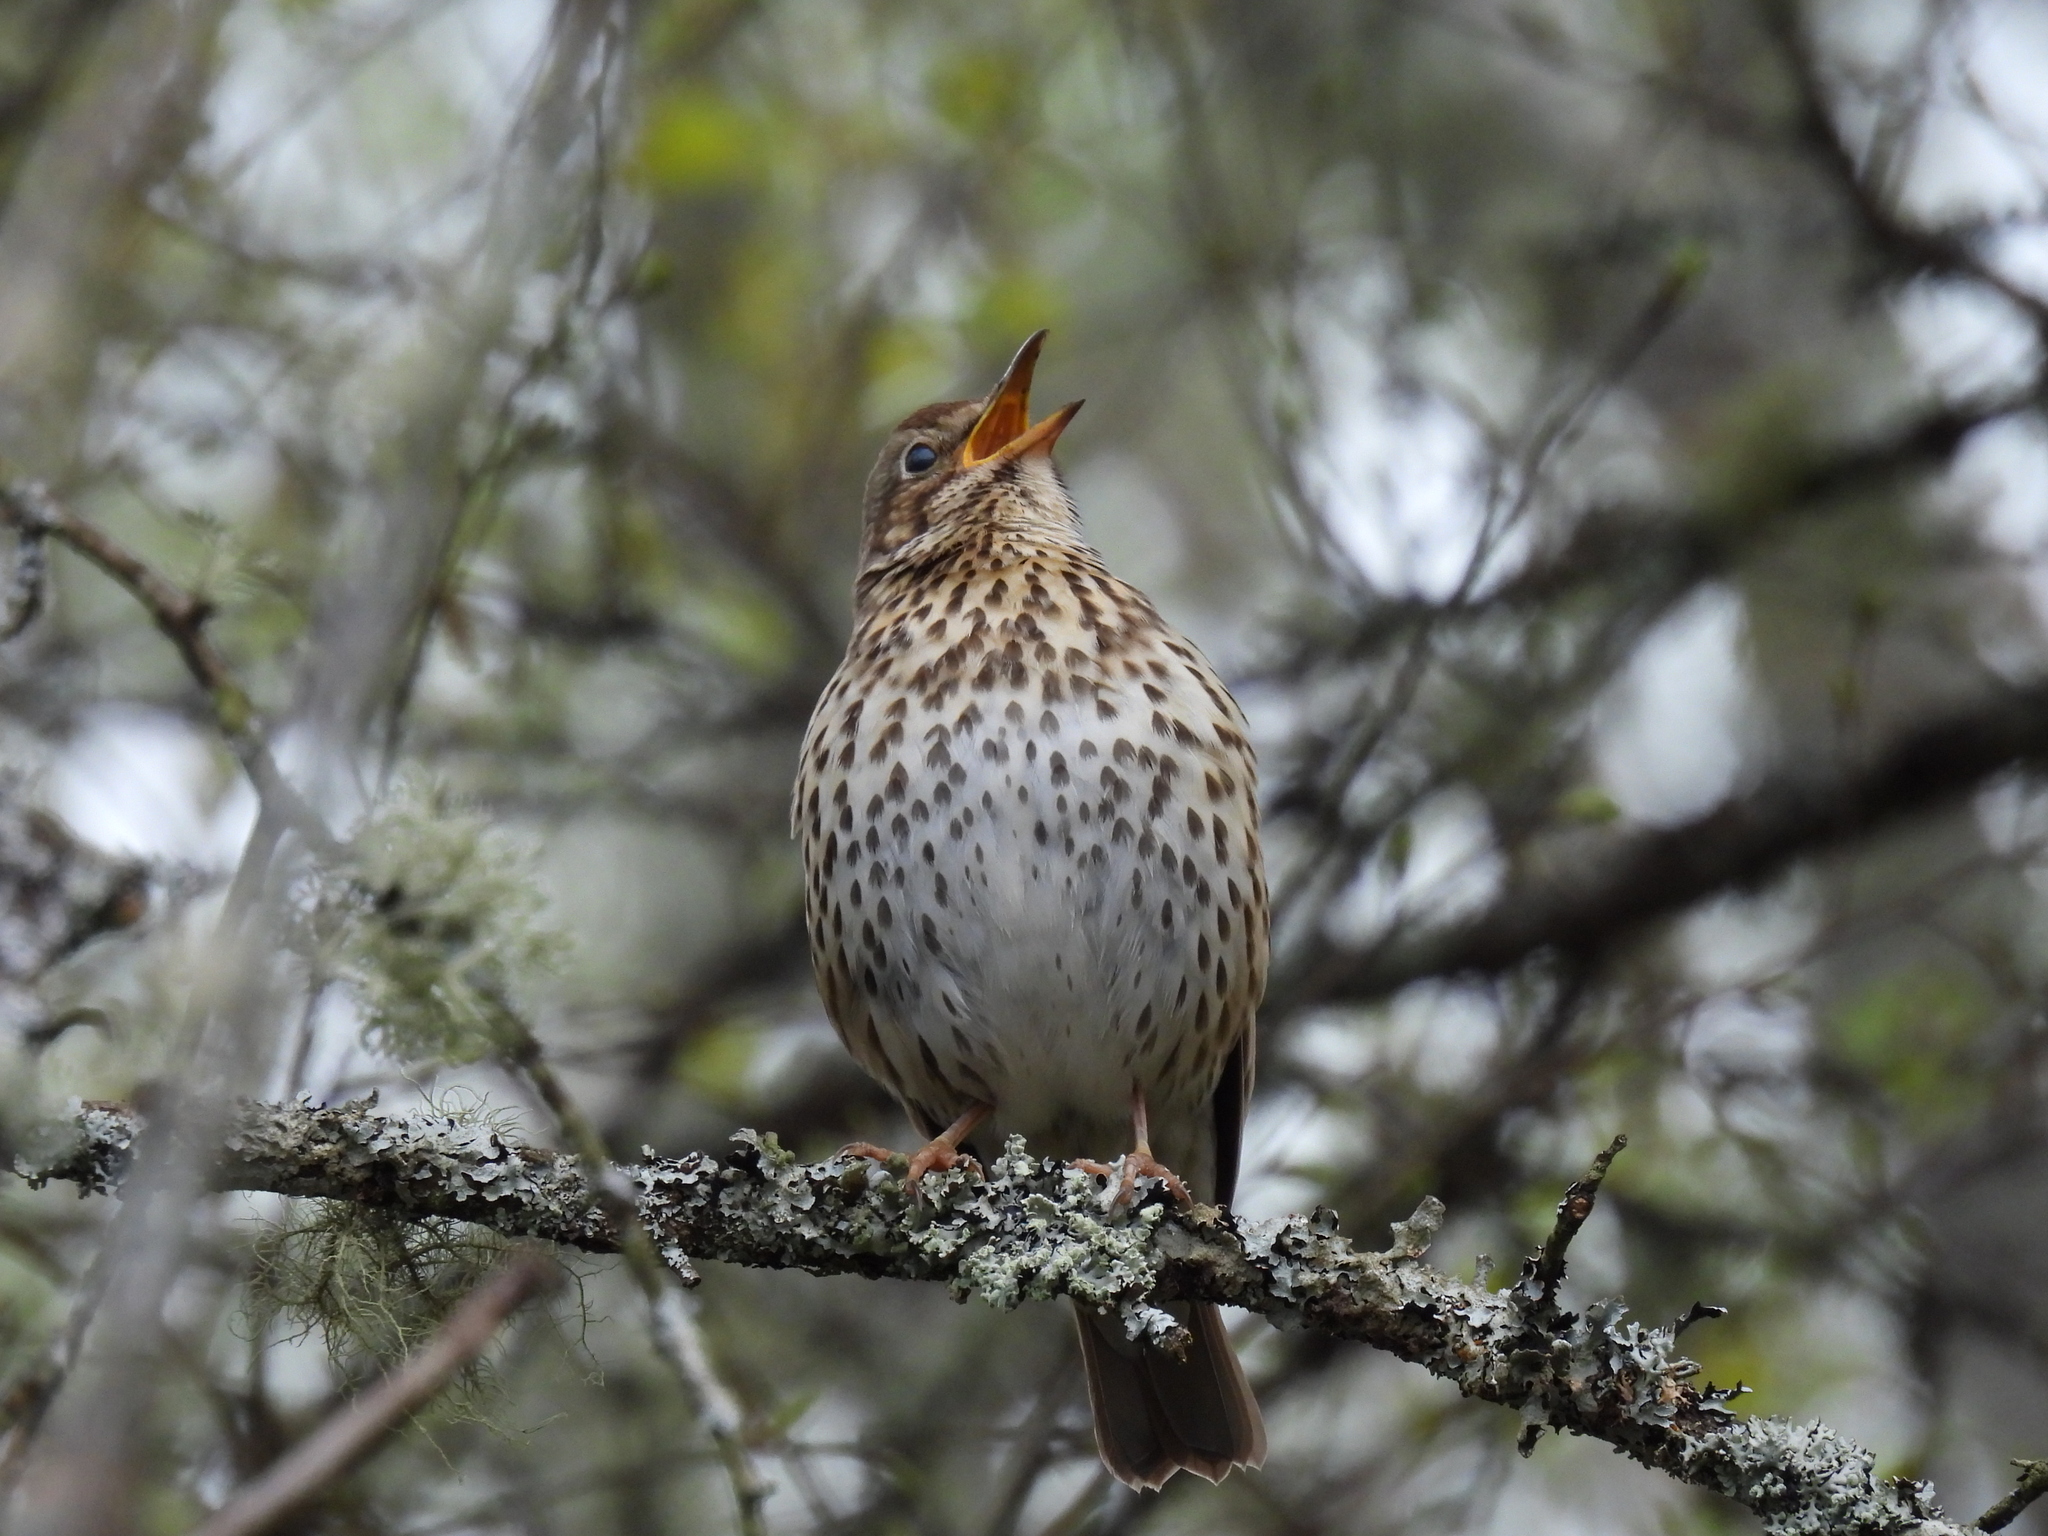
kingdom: Animalia
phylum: Chordata
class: Aves
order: Passeriformes
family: Turdidae
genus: Turdus
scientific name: Turdus philomelos
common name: Song thrush
